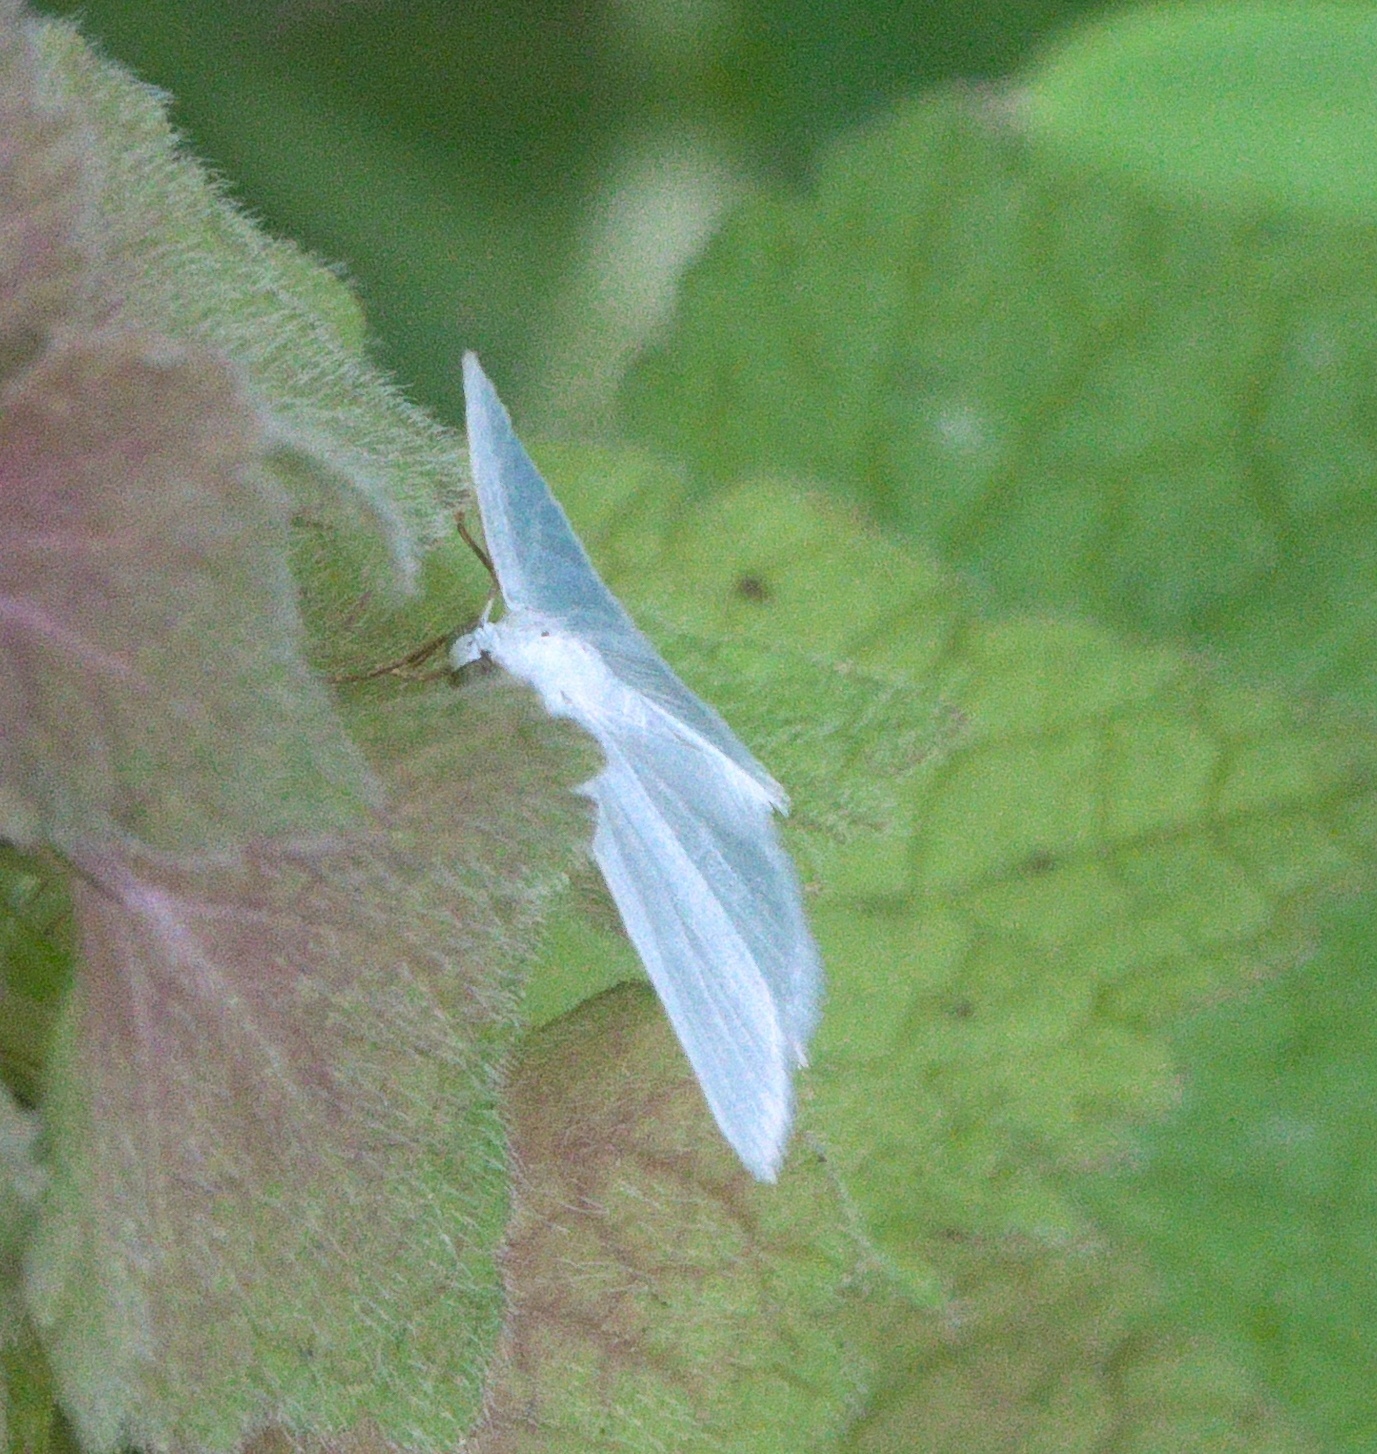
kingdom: Animalia
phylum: Arthropoda
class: Insecta
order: Lepidoptera
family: Geometridae
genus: Lomographa
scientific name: Lomographa vestaliata
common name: White spring moth
